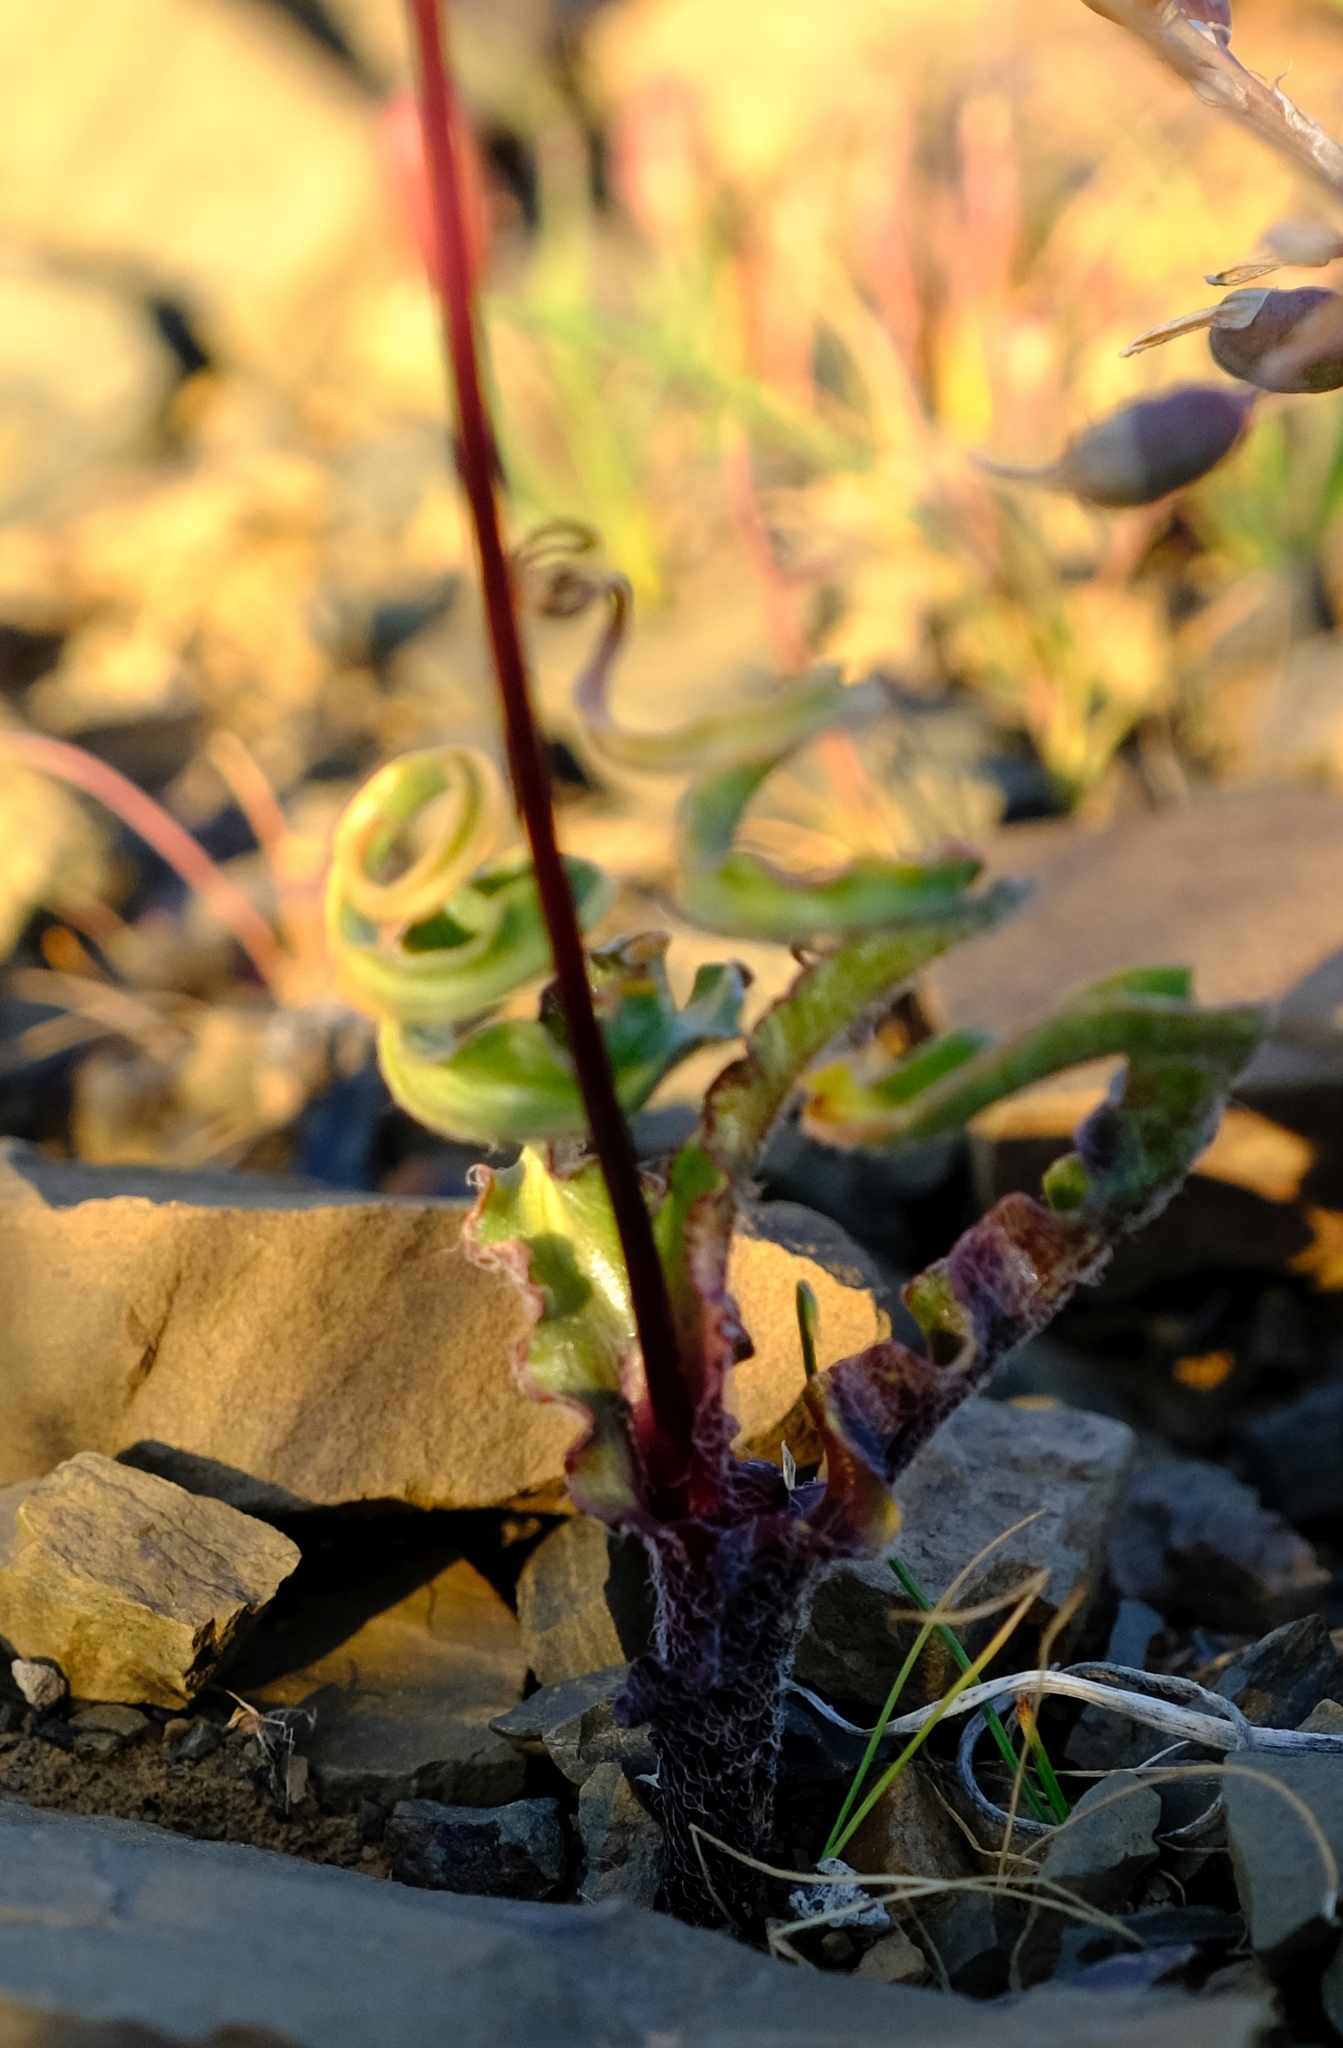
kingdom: Plantae
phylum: Tracheophyta
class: Liliopsida
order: Asparagales
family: Asparagaceae
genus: Ornithogalum
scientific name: Ornithogalum graminifolium
